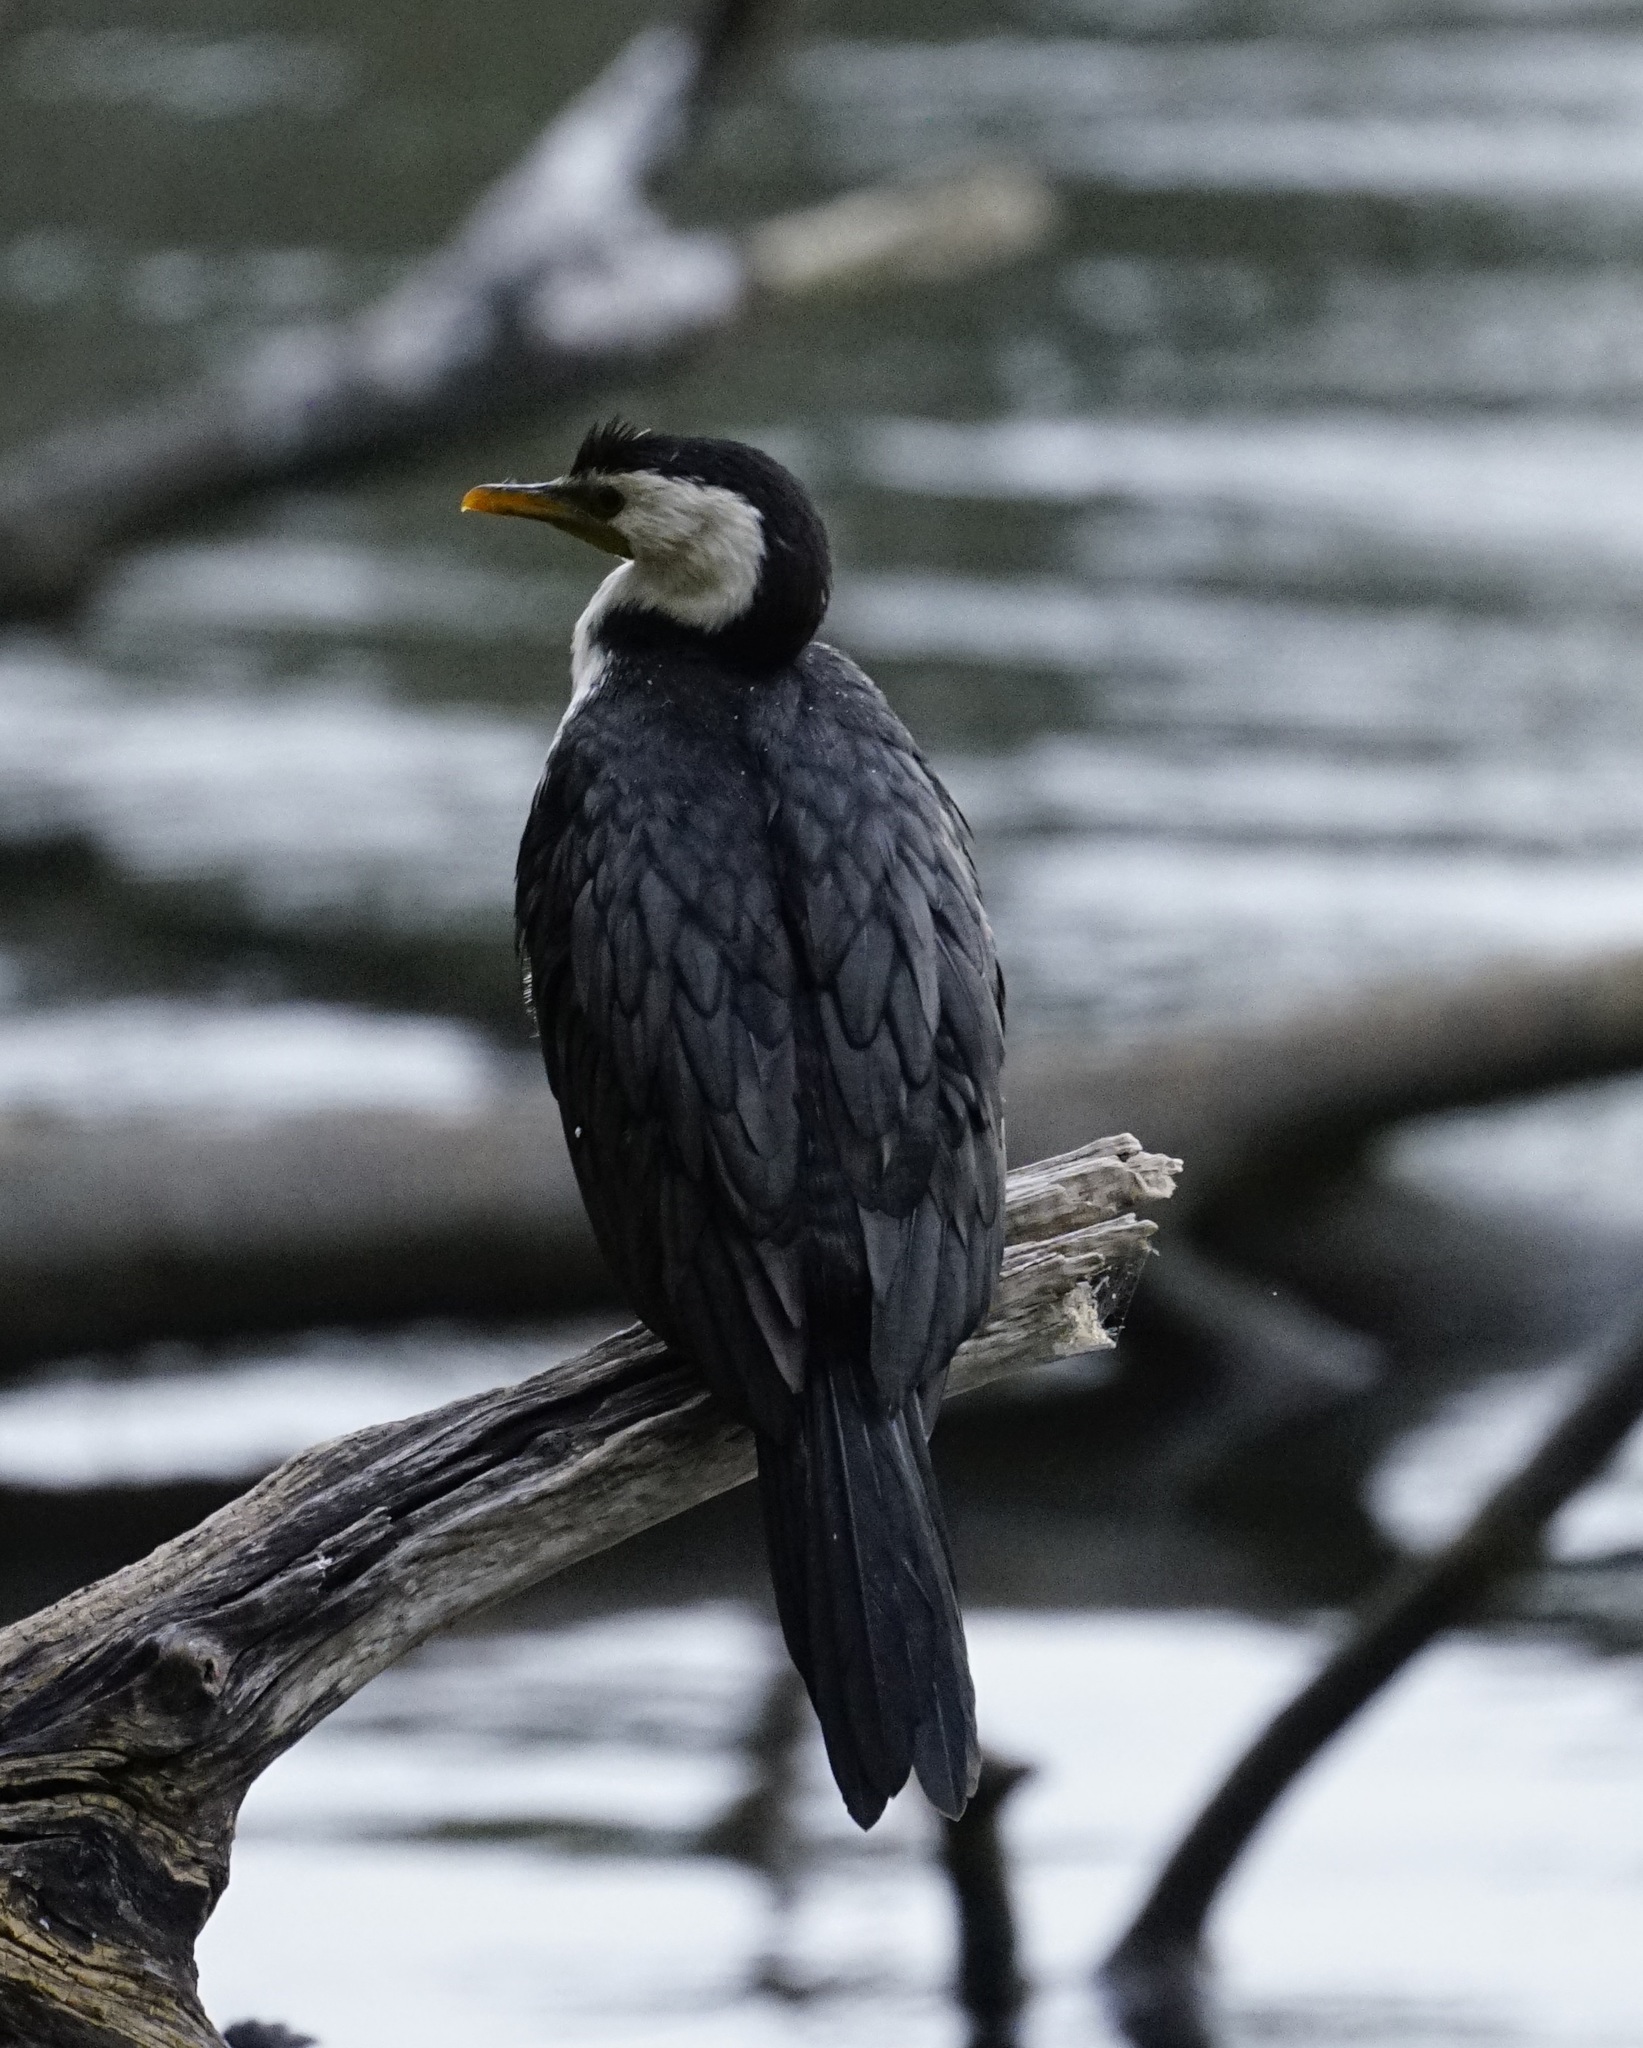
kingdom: Animalia
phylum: Chordata
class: Aves
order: Suliformes
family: Phalacrocoracidae
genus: Microcarbo
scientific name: Microcarbo melanoleucos
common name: Little pied cormorant
